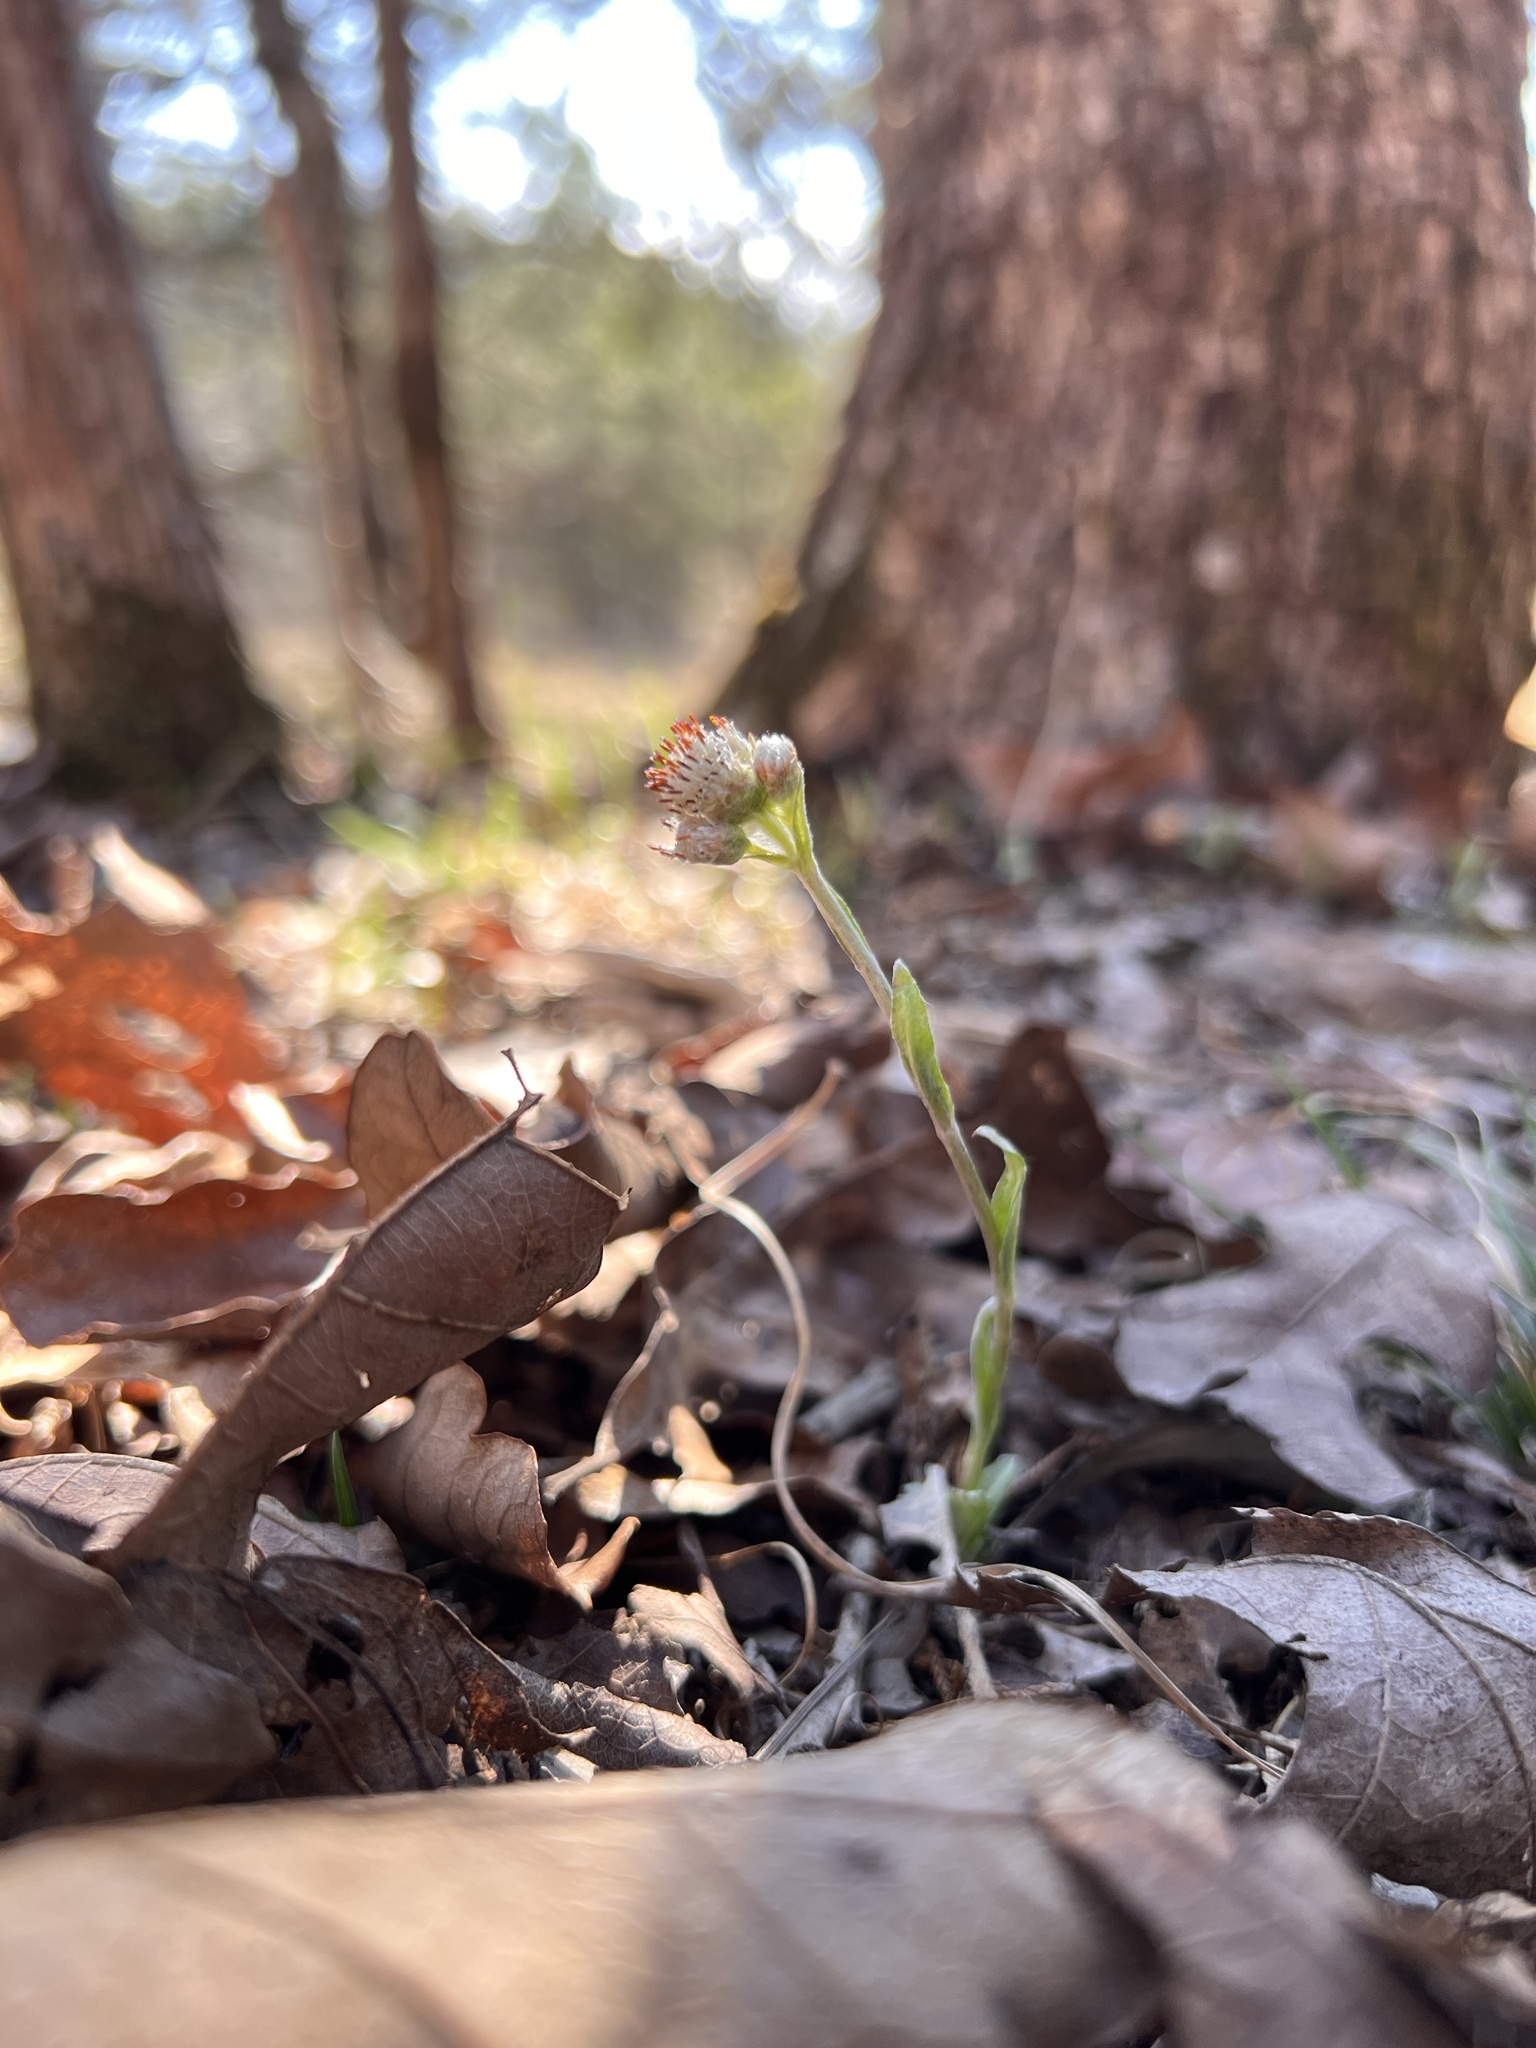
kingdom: Plantae
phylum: Tracheophyta
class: Magnoliopsida
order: Asterales
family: Asteraceae
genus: Antennaria
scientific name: Antennaria parlinii
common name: Parlin's pussytoes
